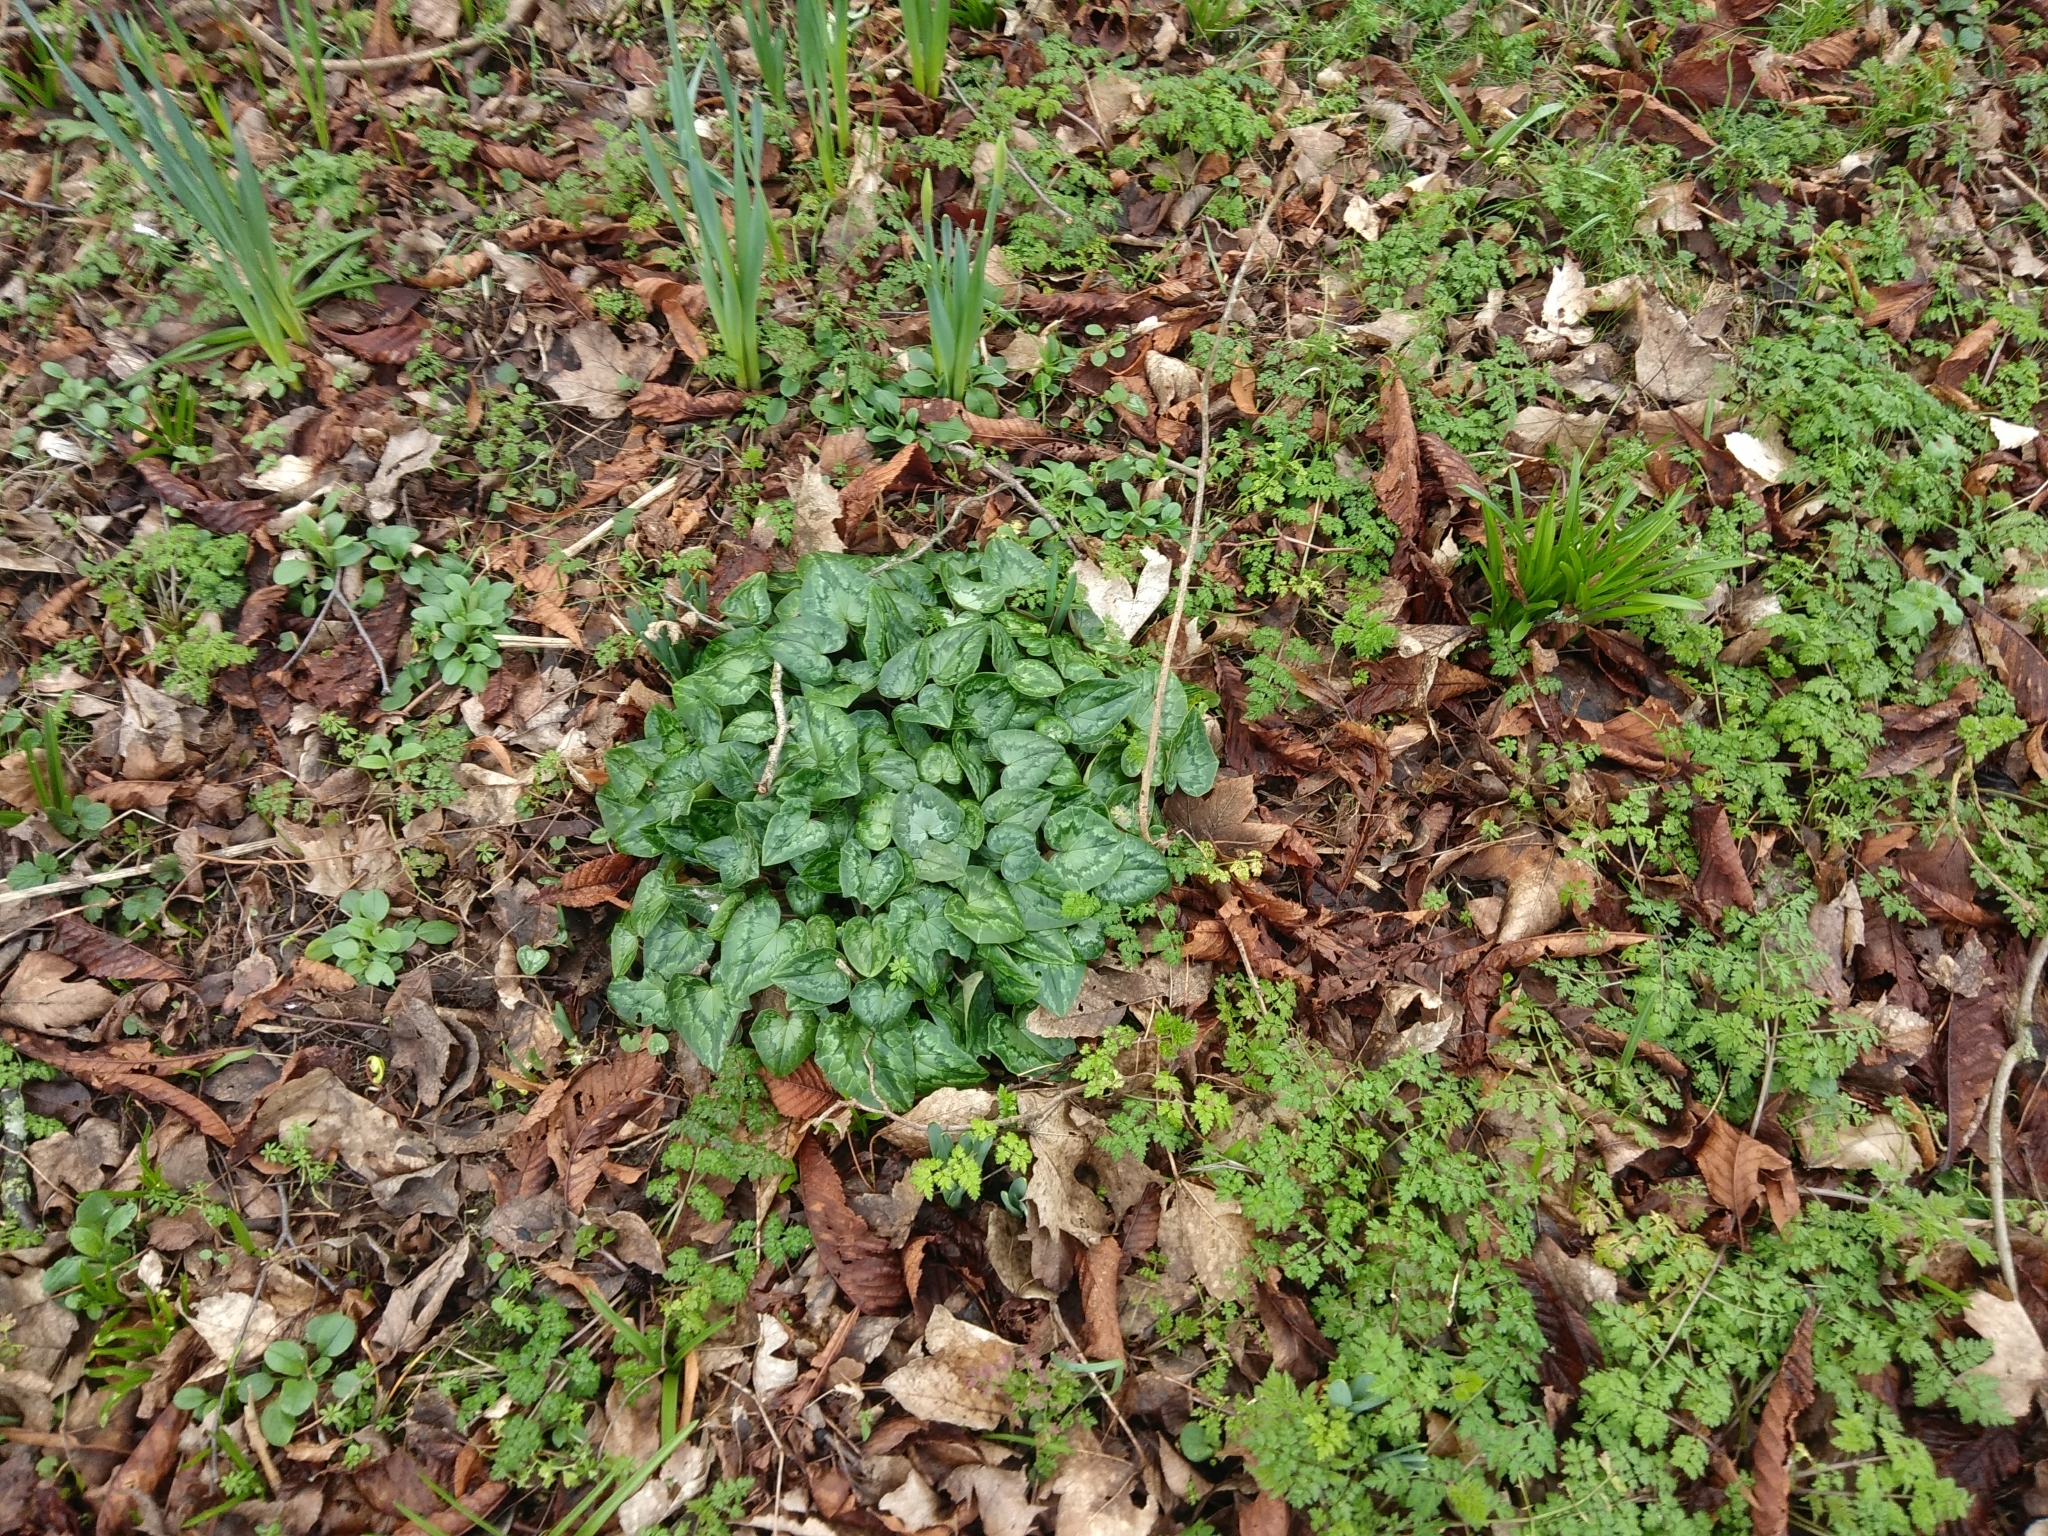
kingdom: Plantae
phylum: Tracheophyta
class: Magnoliopsida
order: Ericales
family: Primulaceae
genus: Cyclamen
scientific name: Cyclamen hederifolium
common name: Sowbread
